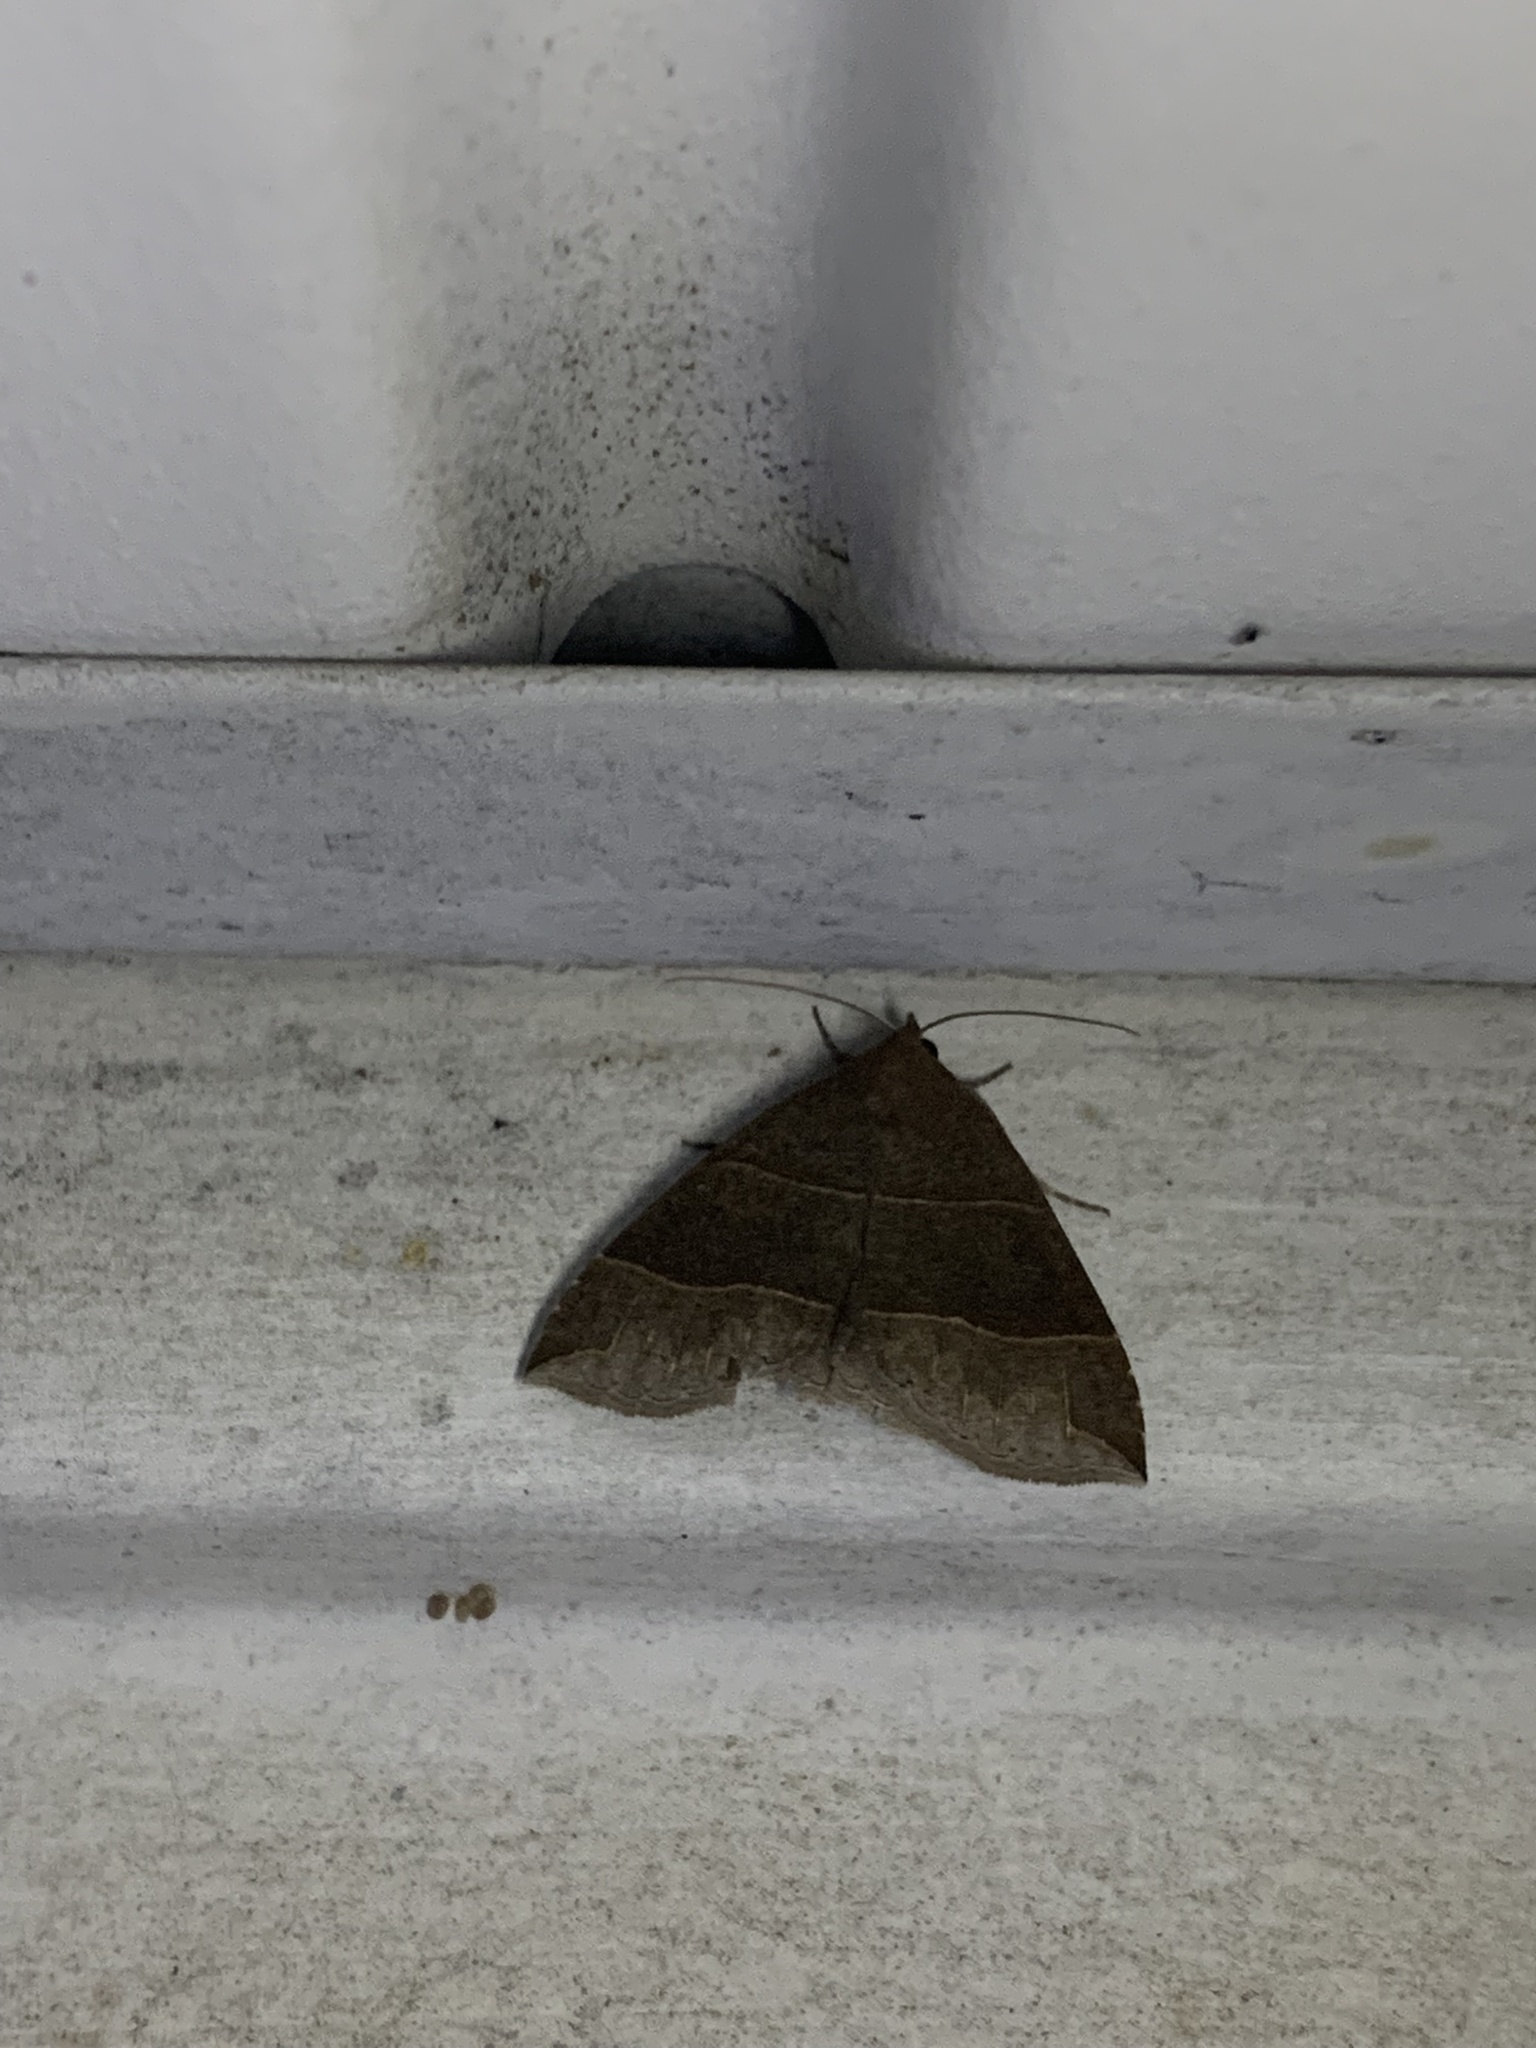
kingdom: Animalia
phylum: Arthropoda
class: Insecta
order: Lepidoptera
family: Erebidae
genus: Parallelia
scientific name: Parallelia bistriaris
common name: Maple looper moth
